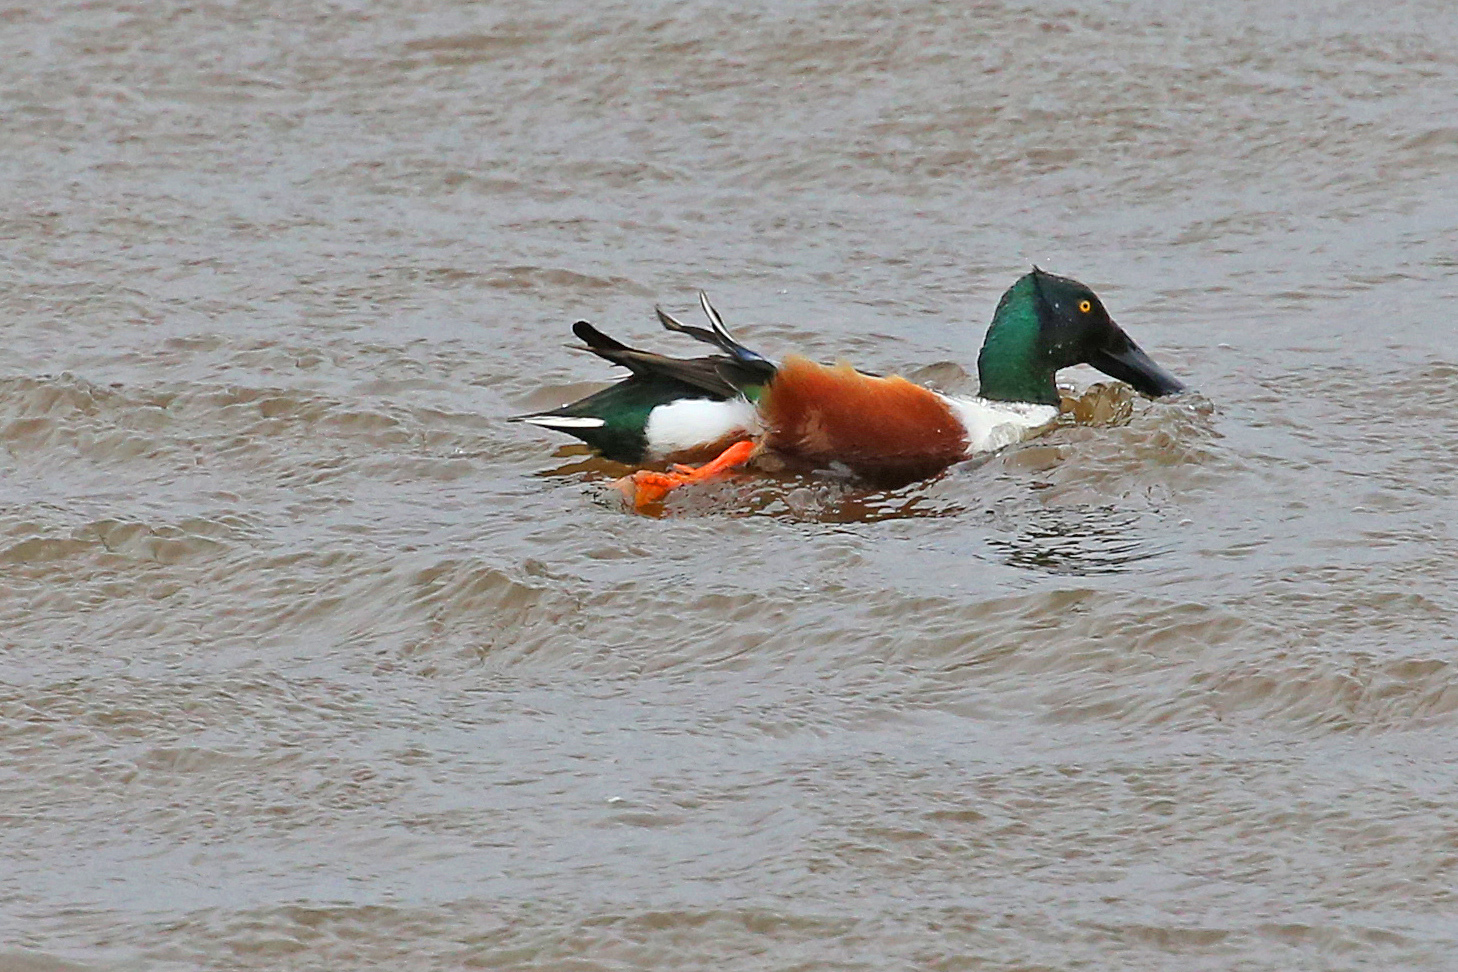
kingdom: Animalia
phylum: Chordata
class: Aves
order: Anseriformes
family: Anatidae
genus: Spatula
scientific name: Spatula clypeata
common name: Northern shoveler
